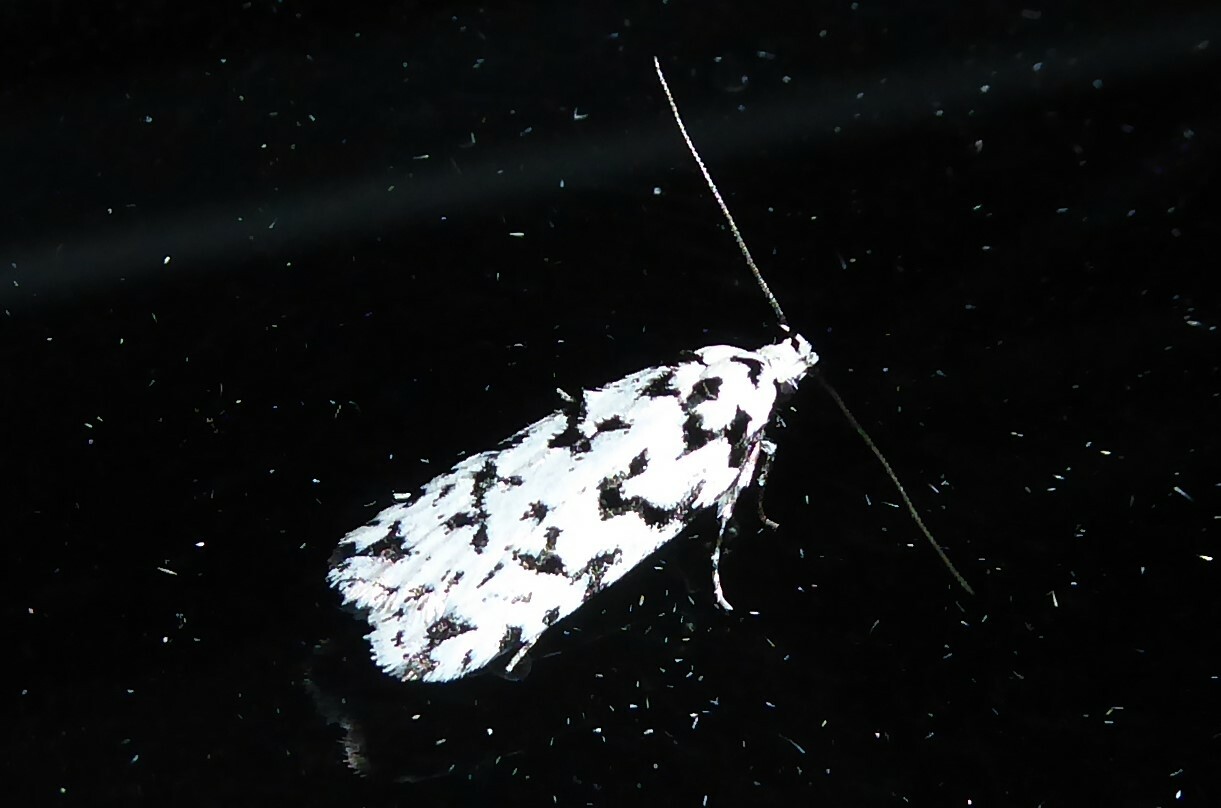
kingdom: Animalia
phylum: Arthropoda
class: Insecta
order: Lepidoptera
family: Oecophoridae
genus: Izatha
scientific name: Izatha katadiktya
